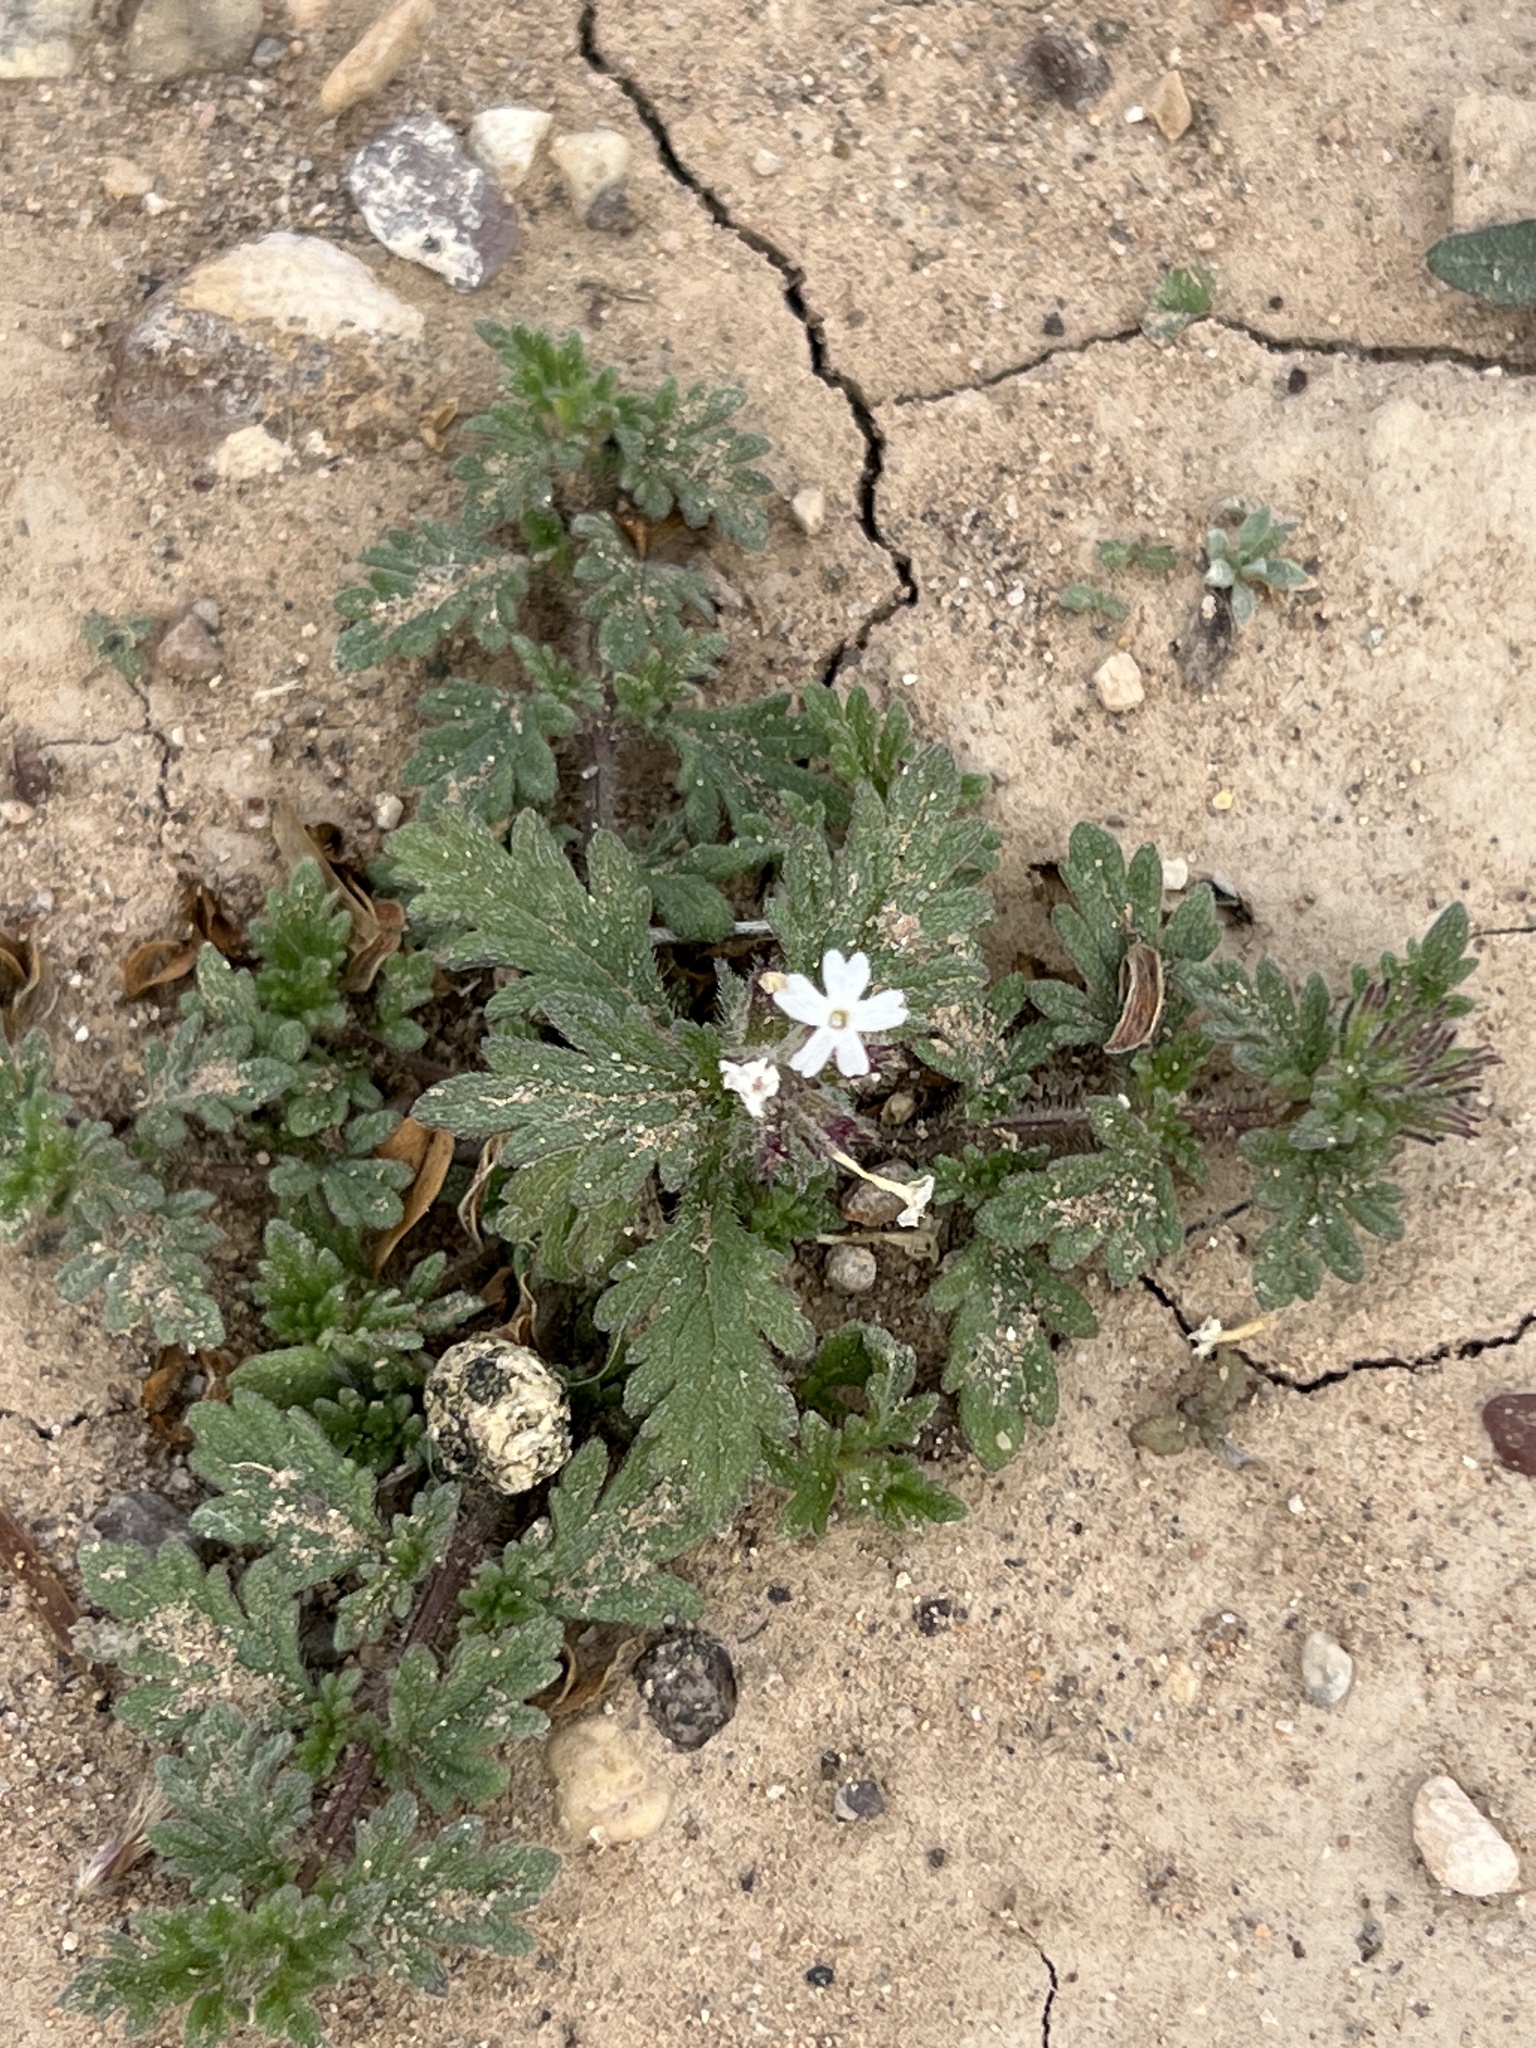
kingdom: Plantae
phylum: Tracheophyta
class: Magnoliopsida
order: Lamiales
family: Verbenaceae
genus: Verbena
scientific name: Verbena quadrangulata
